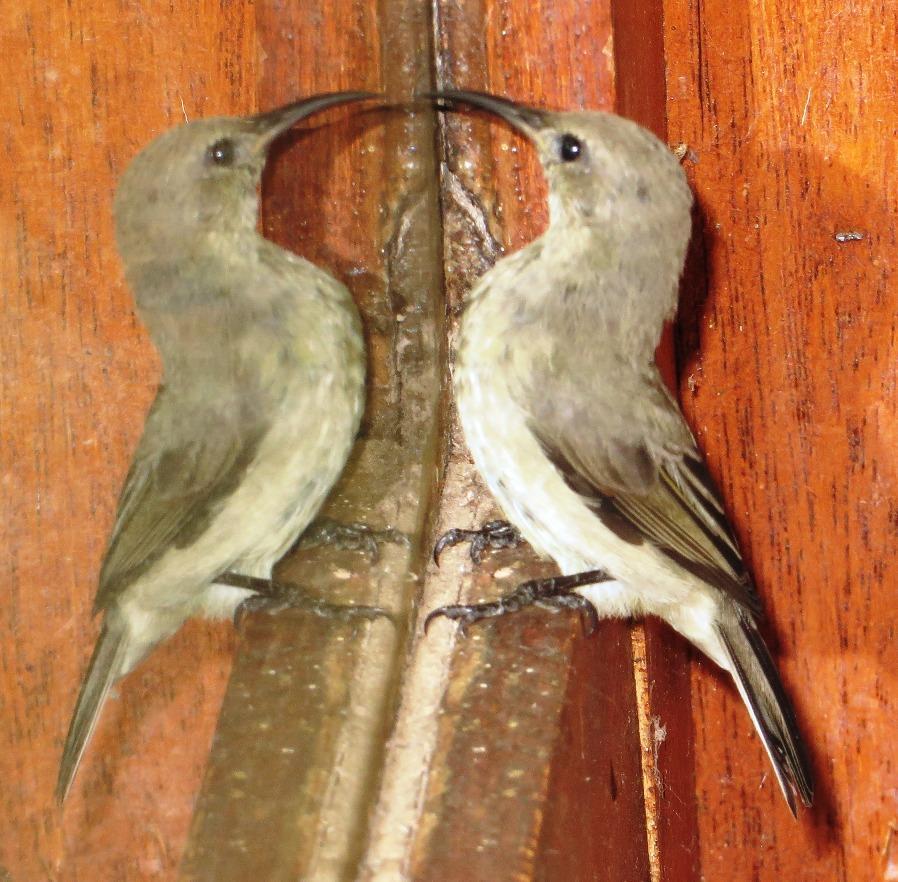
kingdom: Animalia
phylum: Chordata
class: Aves
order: Passeriformes
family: Nectariniidae
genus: Cinnyris
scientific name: Cinnyris chalybeus
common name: Southern double-collared sunbird
